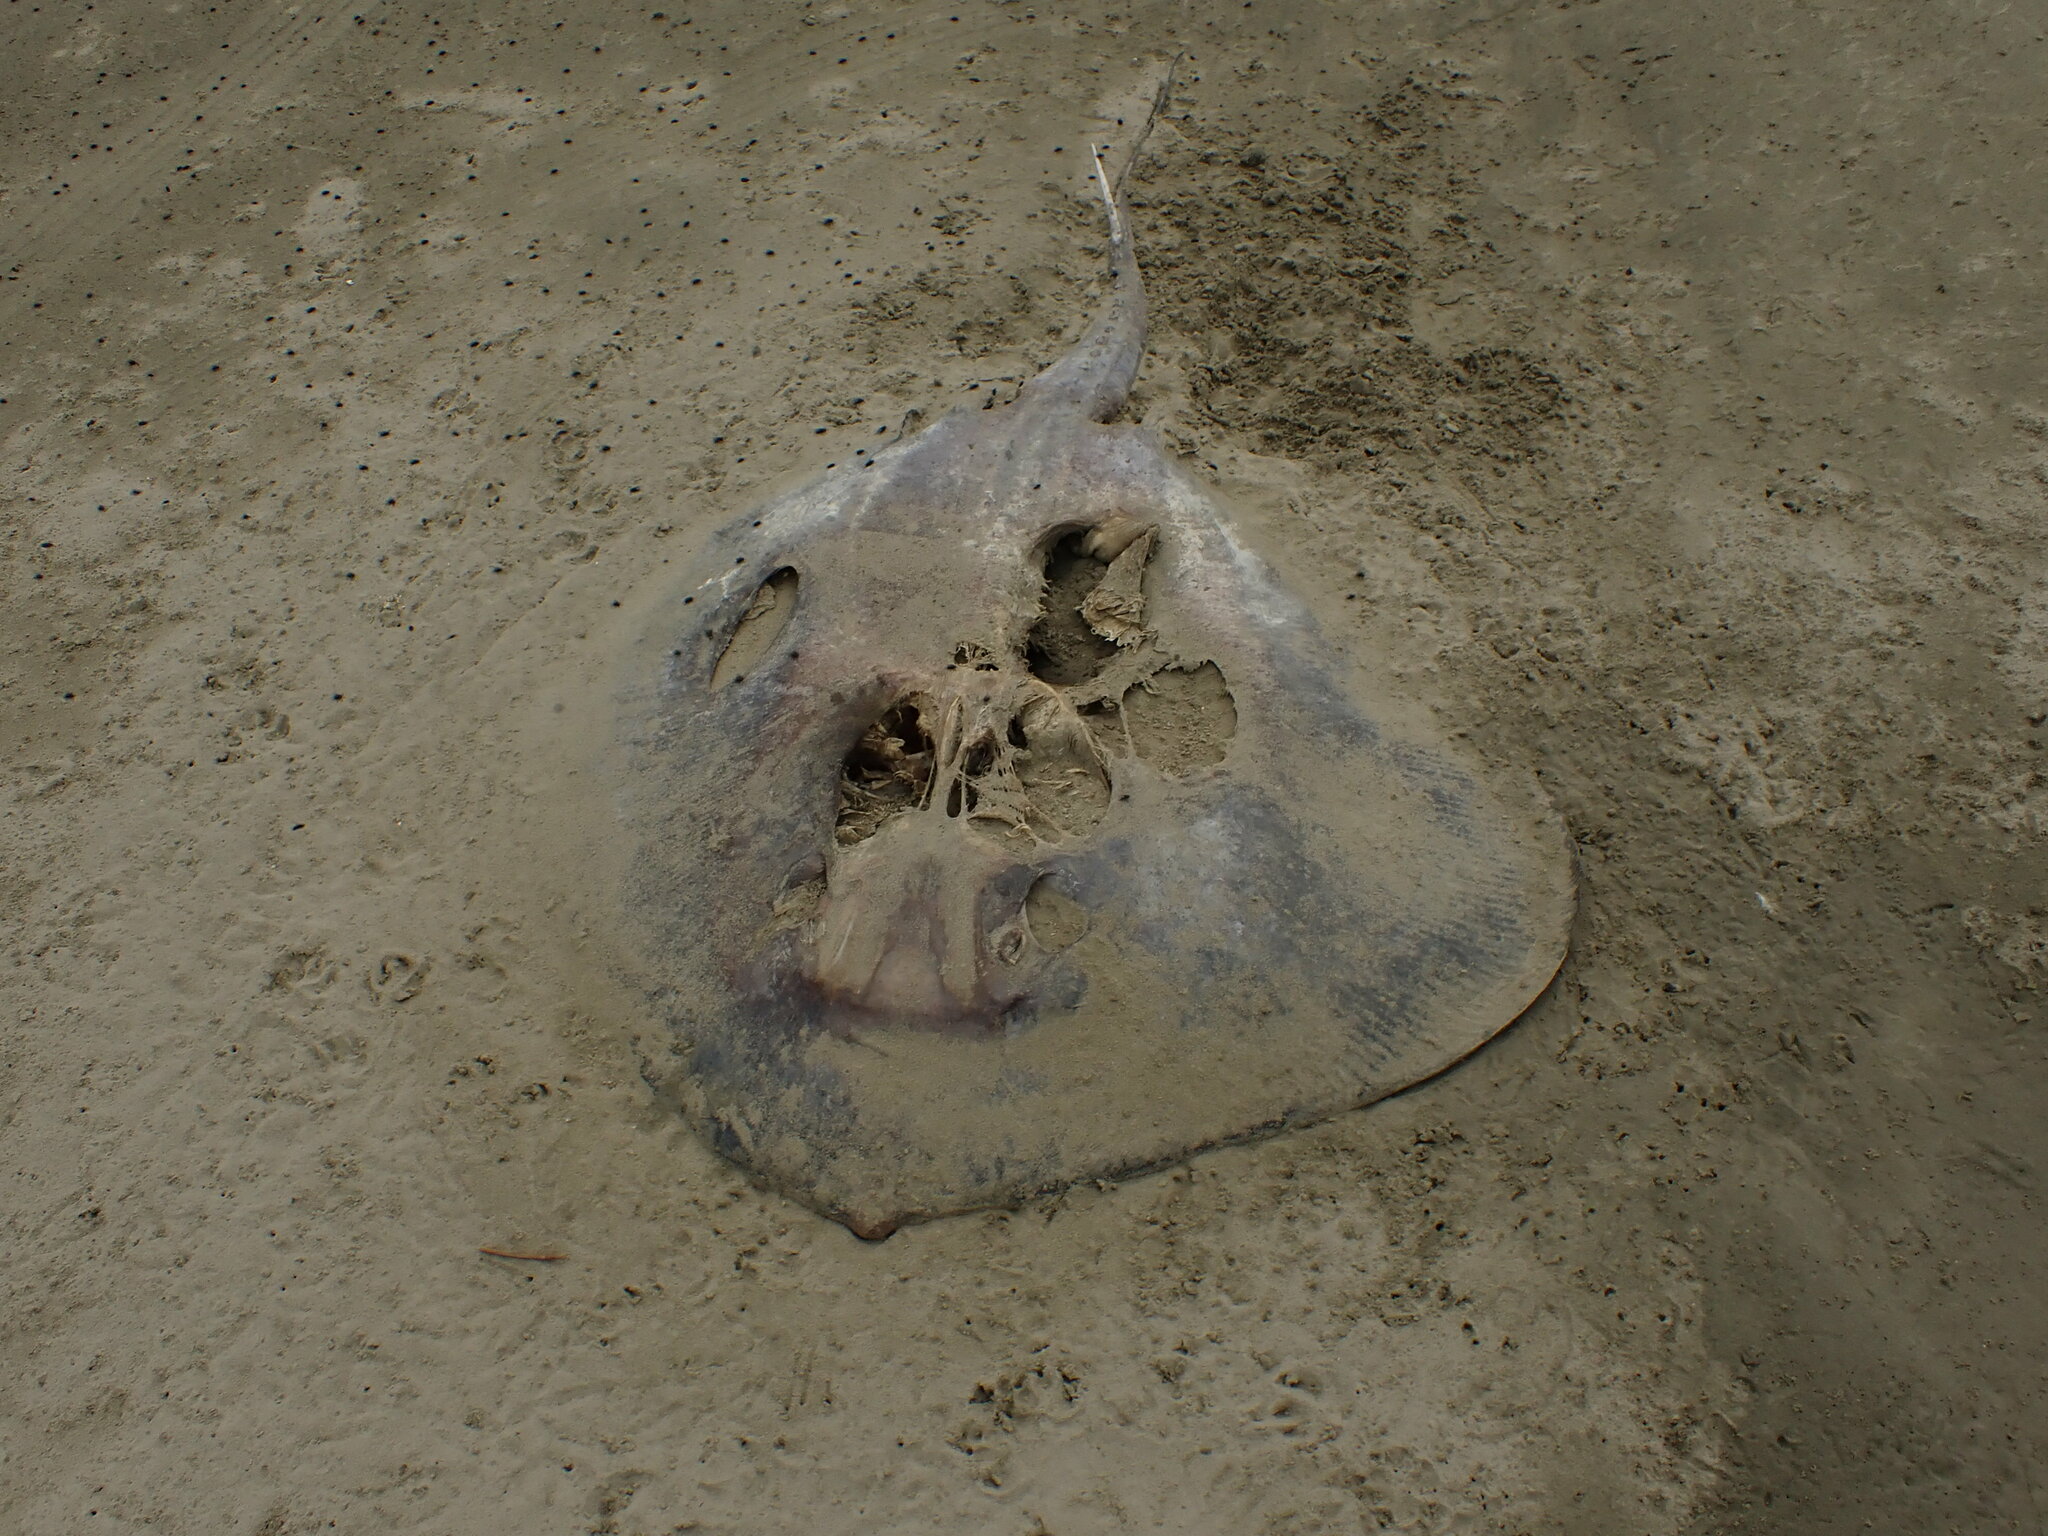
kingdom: Animalia
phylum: Chordata
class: Elasmobranchii
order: Myliobatiformes
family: Dasyatidae
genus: Bathytoshia
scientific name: Bathytoshia brevicaudata
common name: Short-tail stingray
